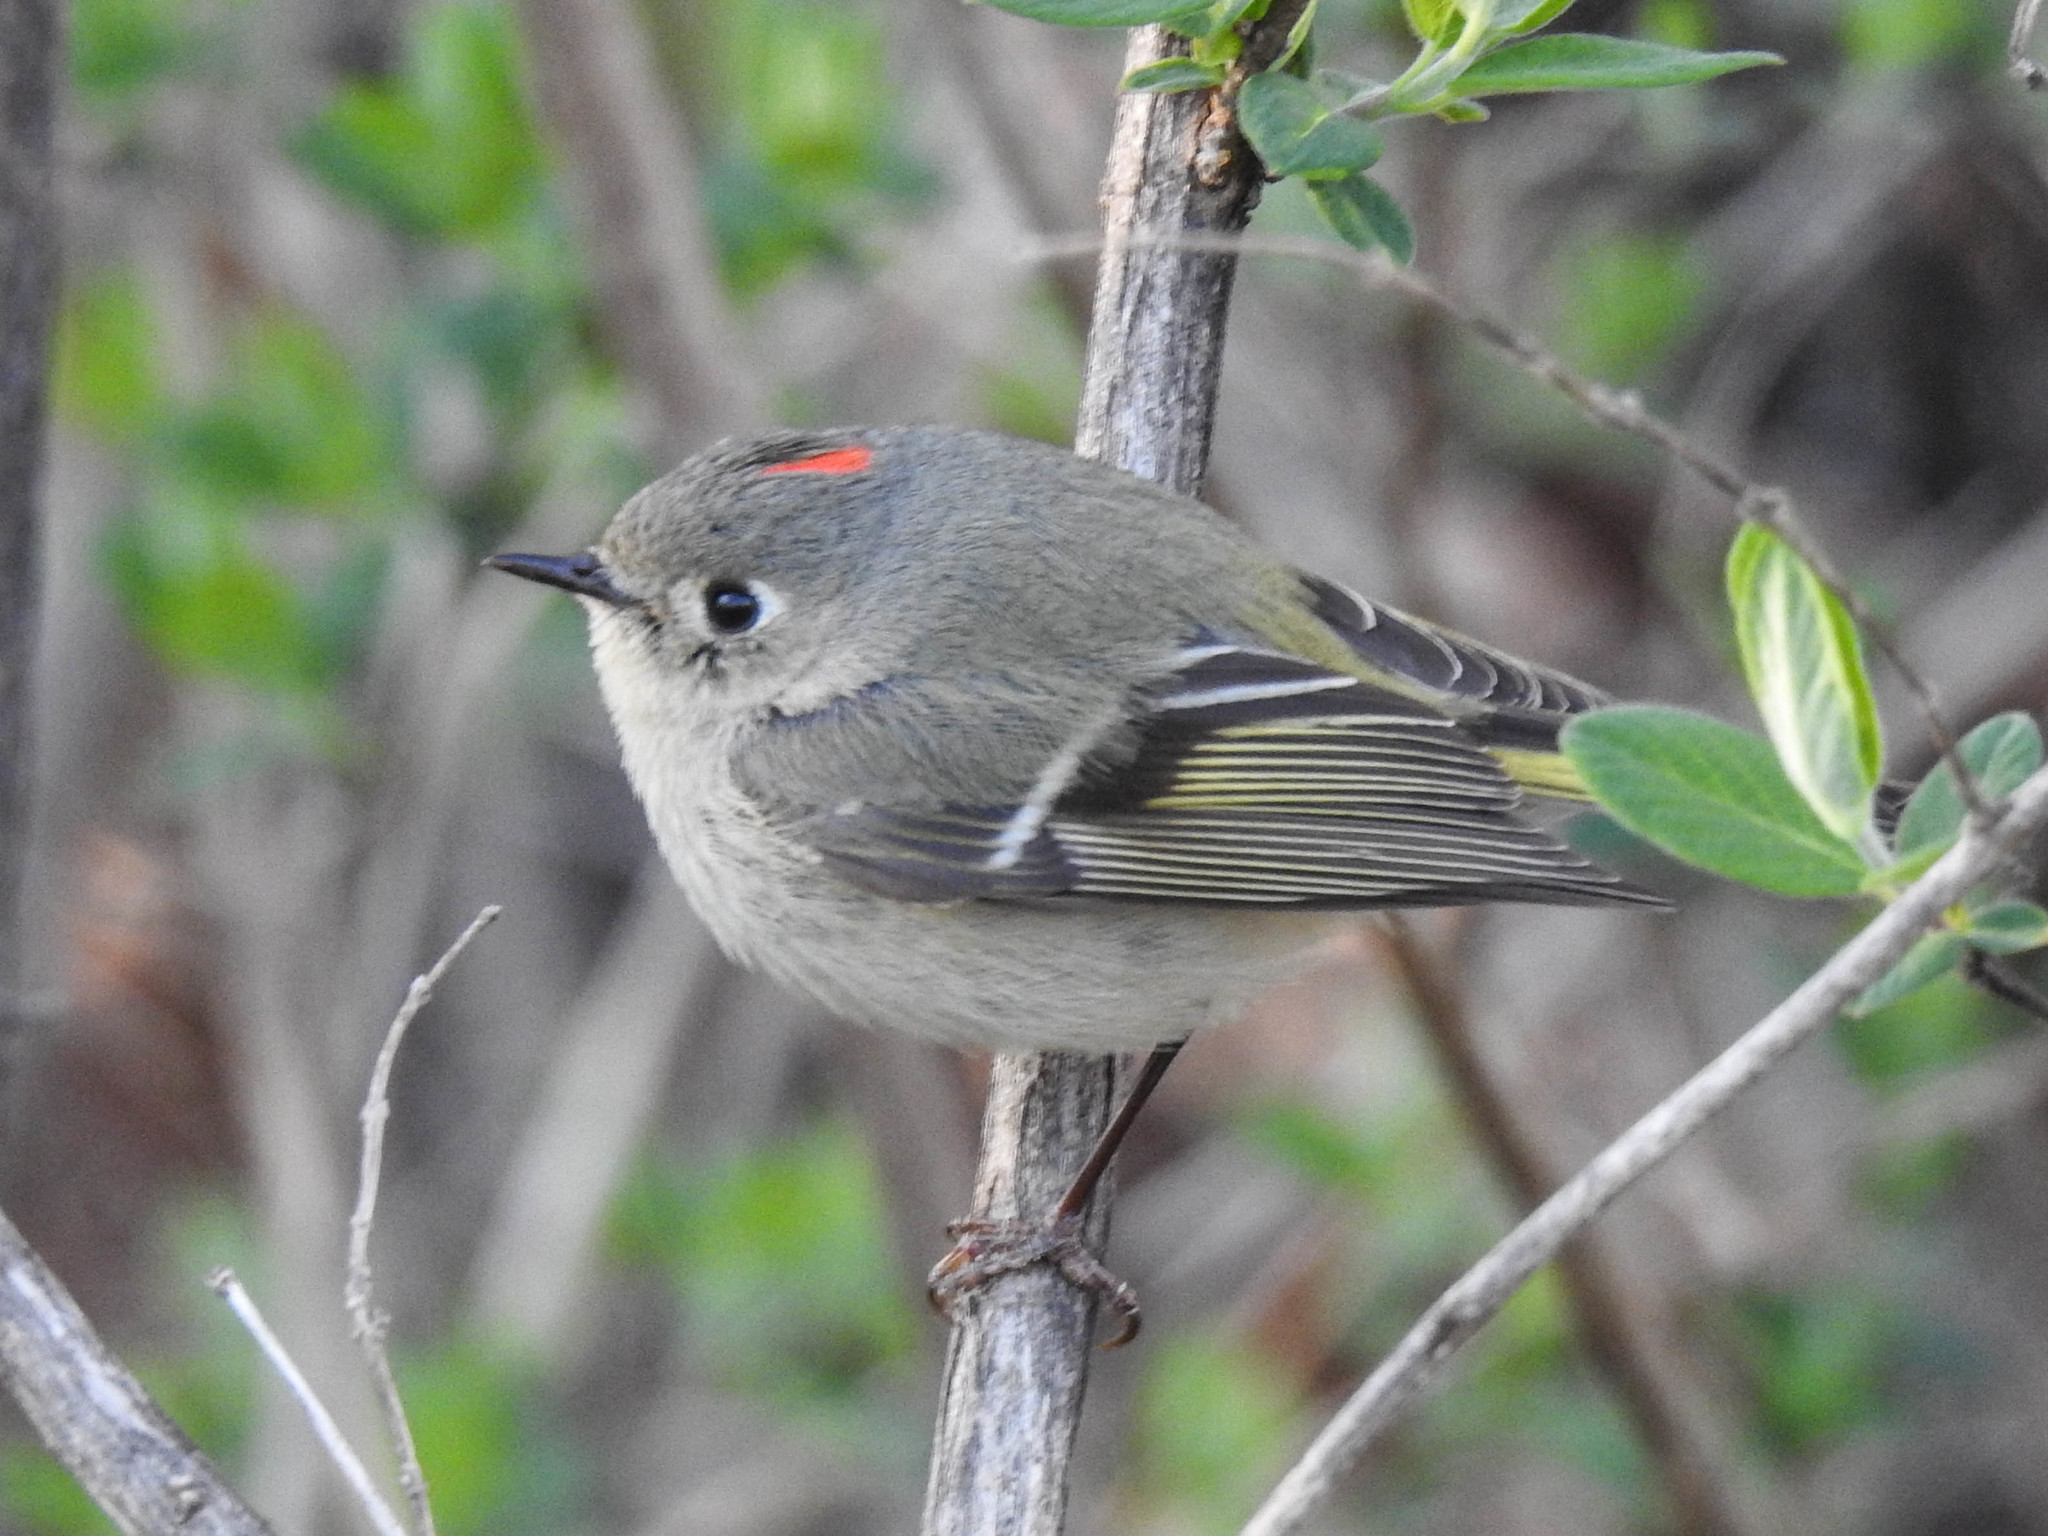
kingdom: Animalia
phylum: Chordata
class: Aves
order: Passeriformes
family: Regulidae
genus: Regulus
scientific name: Regulus calendula
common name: Ruby-crowned kinglet
